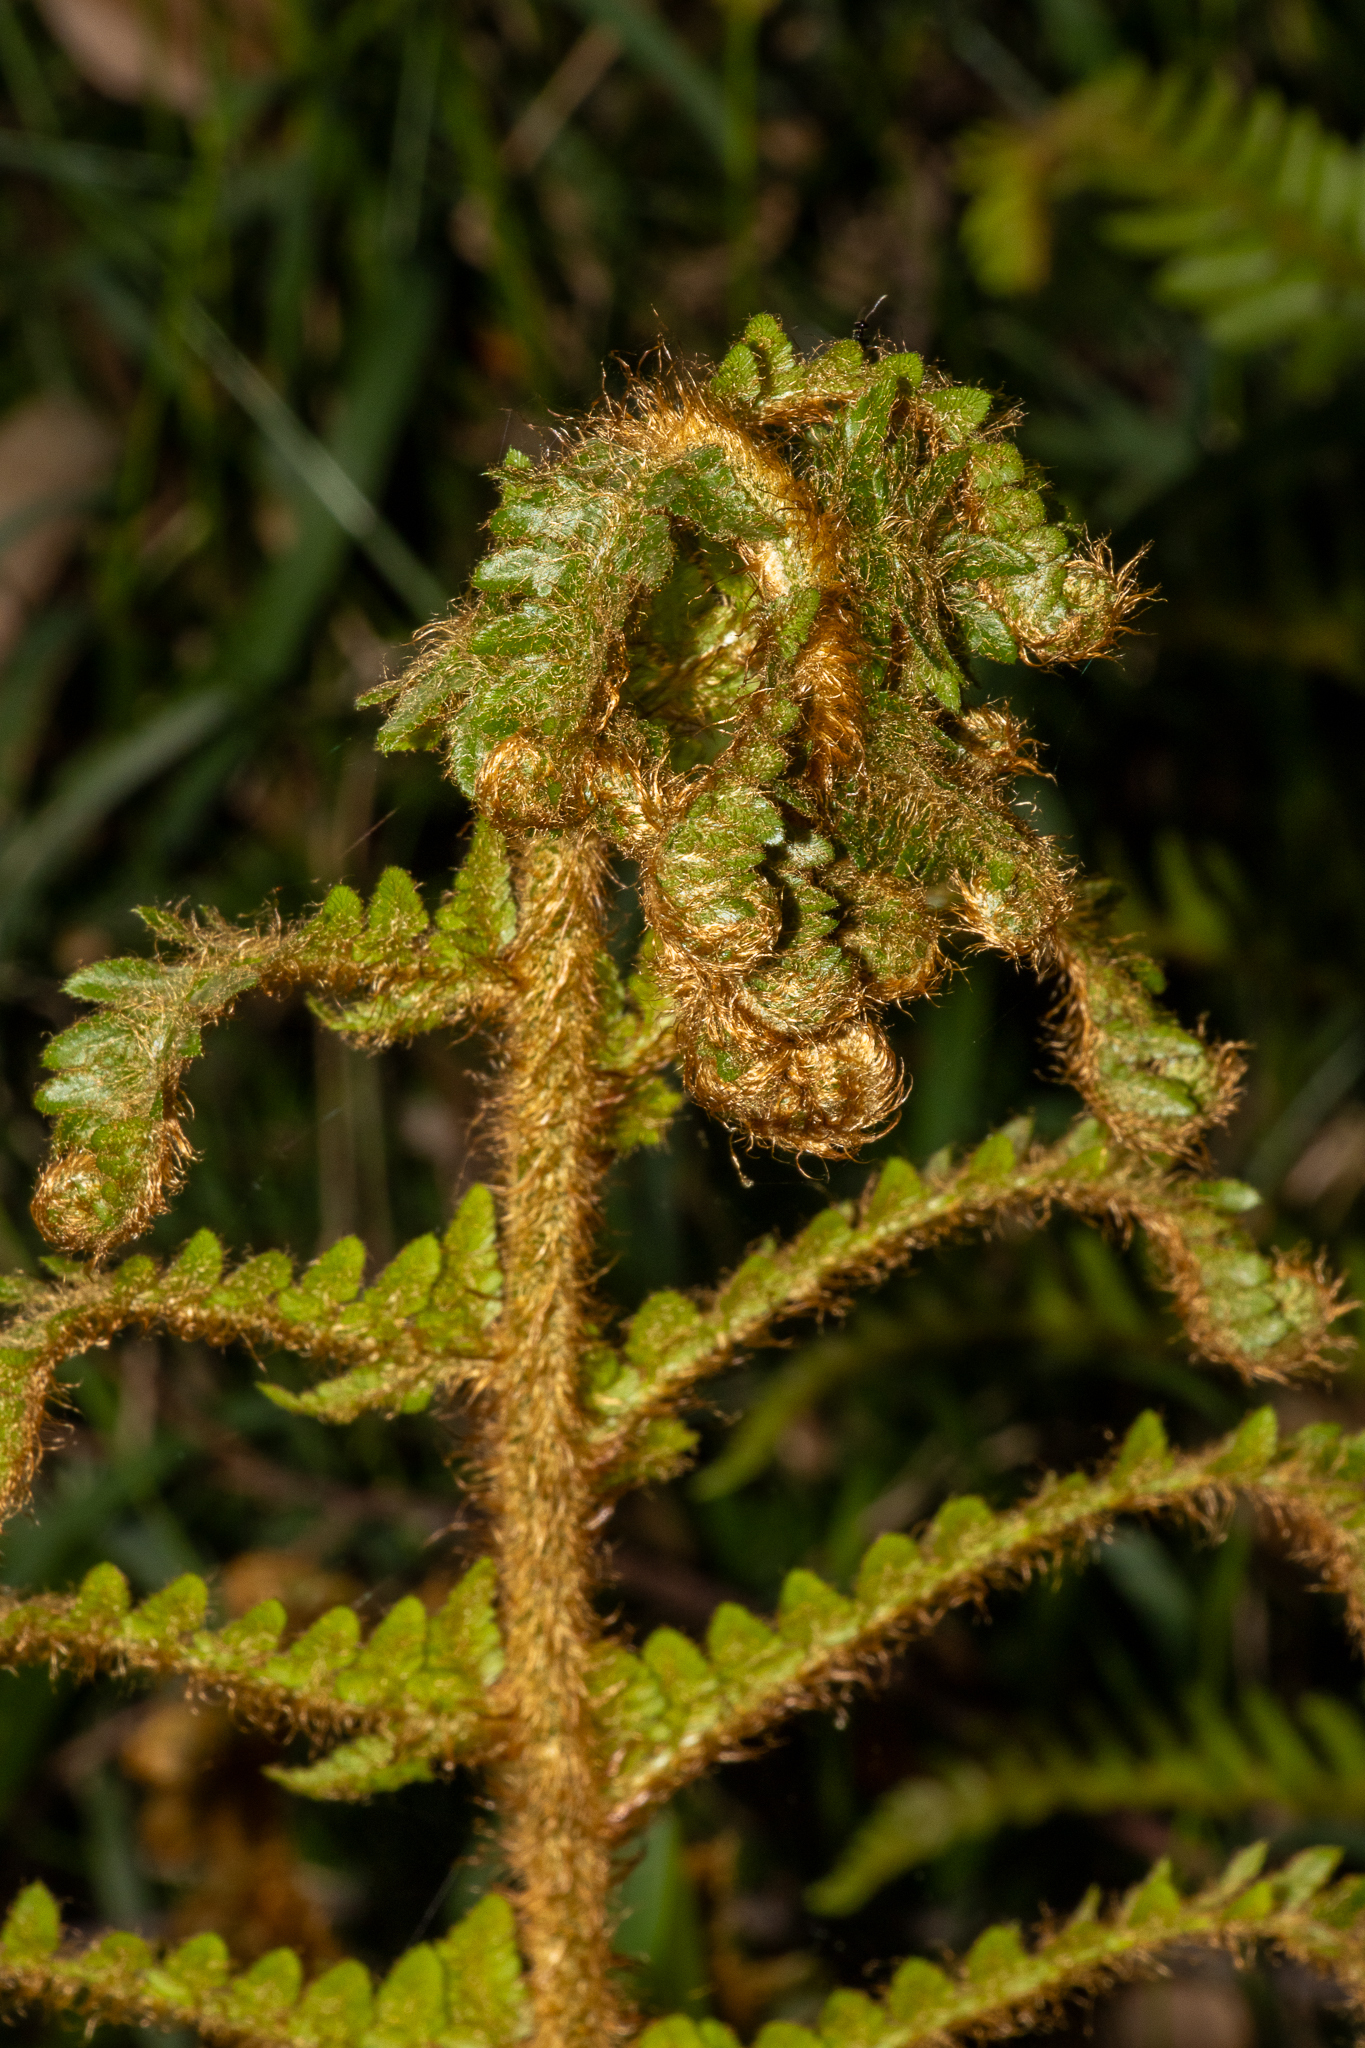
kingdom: Plantae
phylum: Tracheophyta
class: Polypodiopsida
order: Polypodiales
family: Dryopteridaceae
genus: Polystichum
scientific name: Polystichum proliferum
